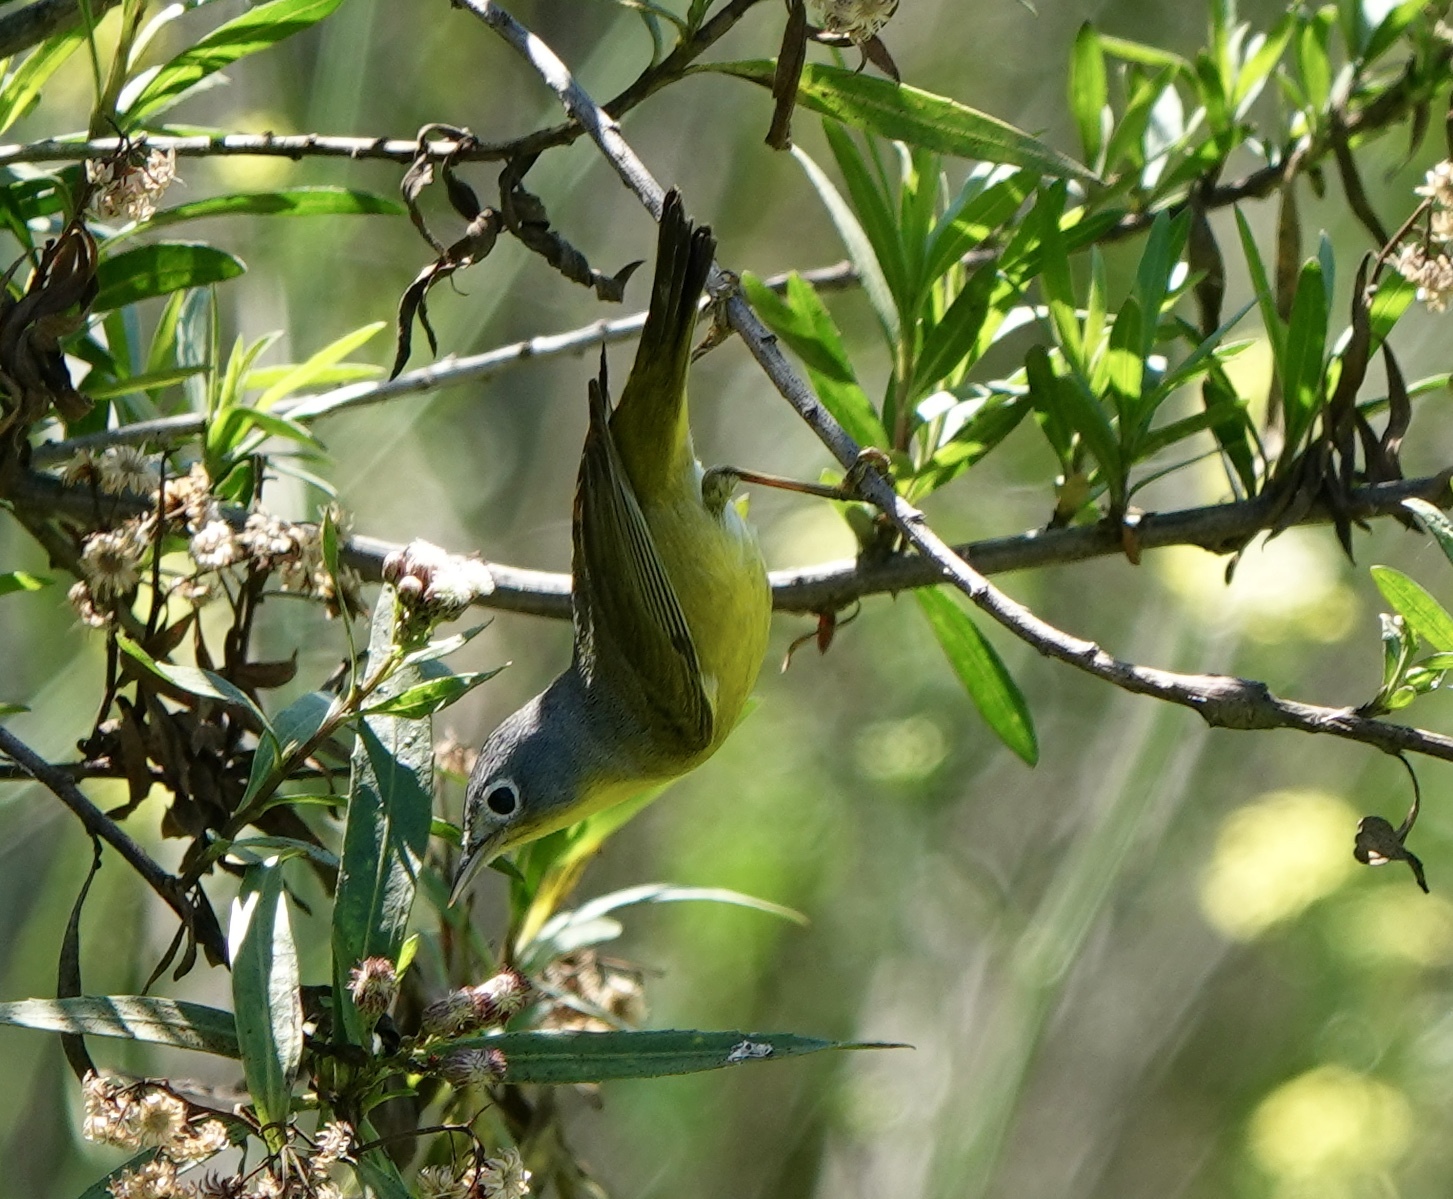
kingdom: Animalia
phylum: Chordata
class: Aves
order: Passeriformes
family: Parulidae
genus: Leiothlypis
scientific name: Leiothlypis ruficapilla
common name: Nashville warbler
